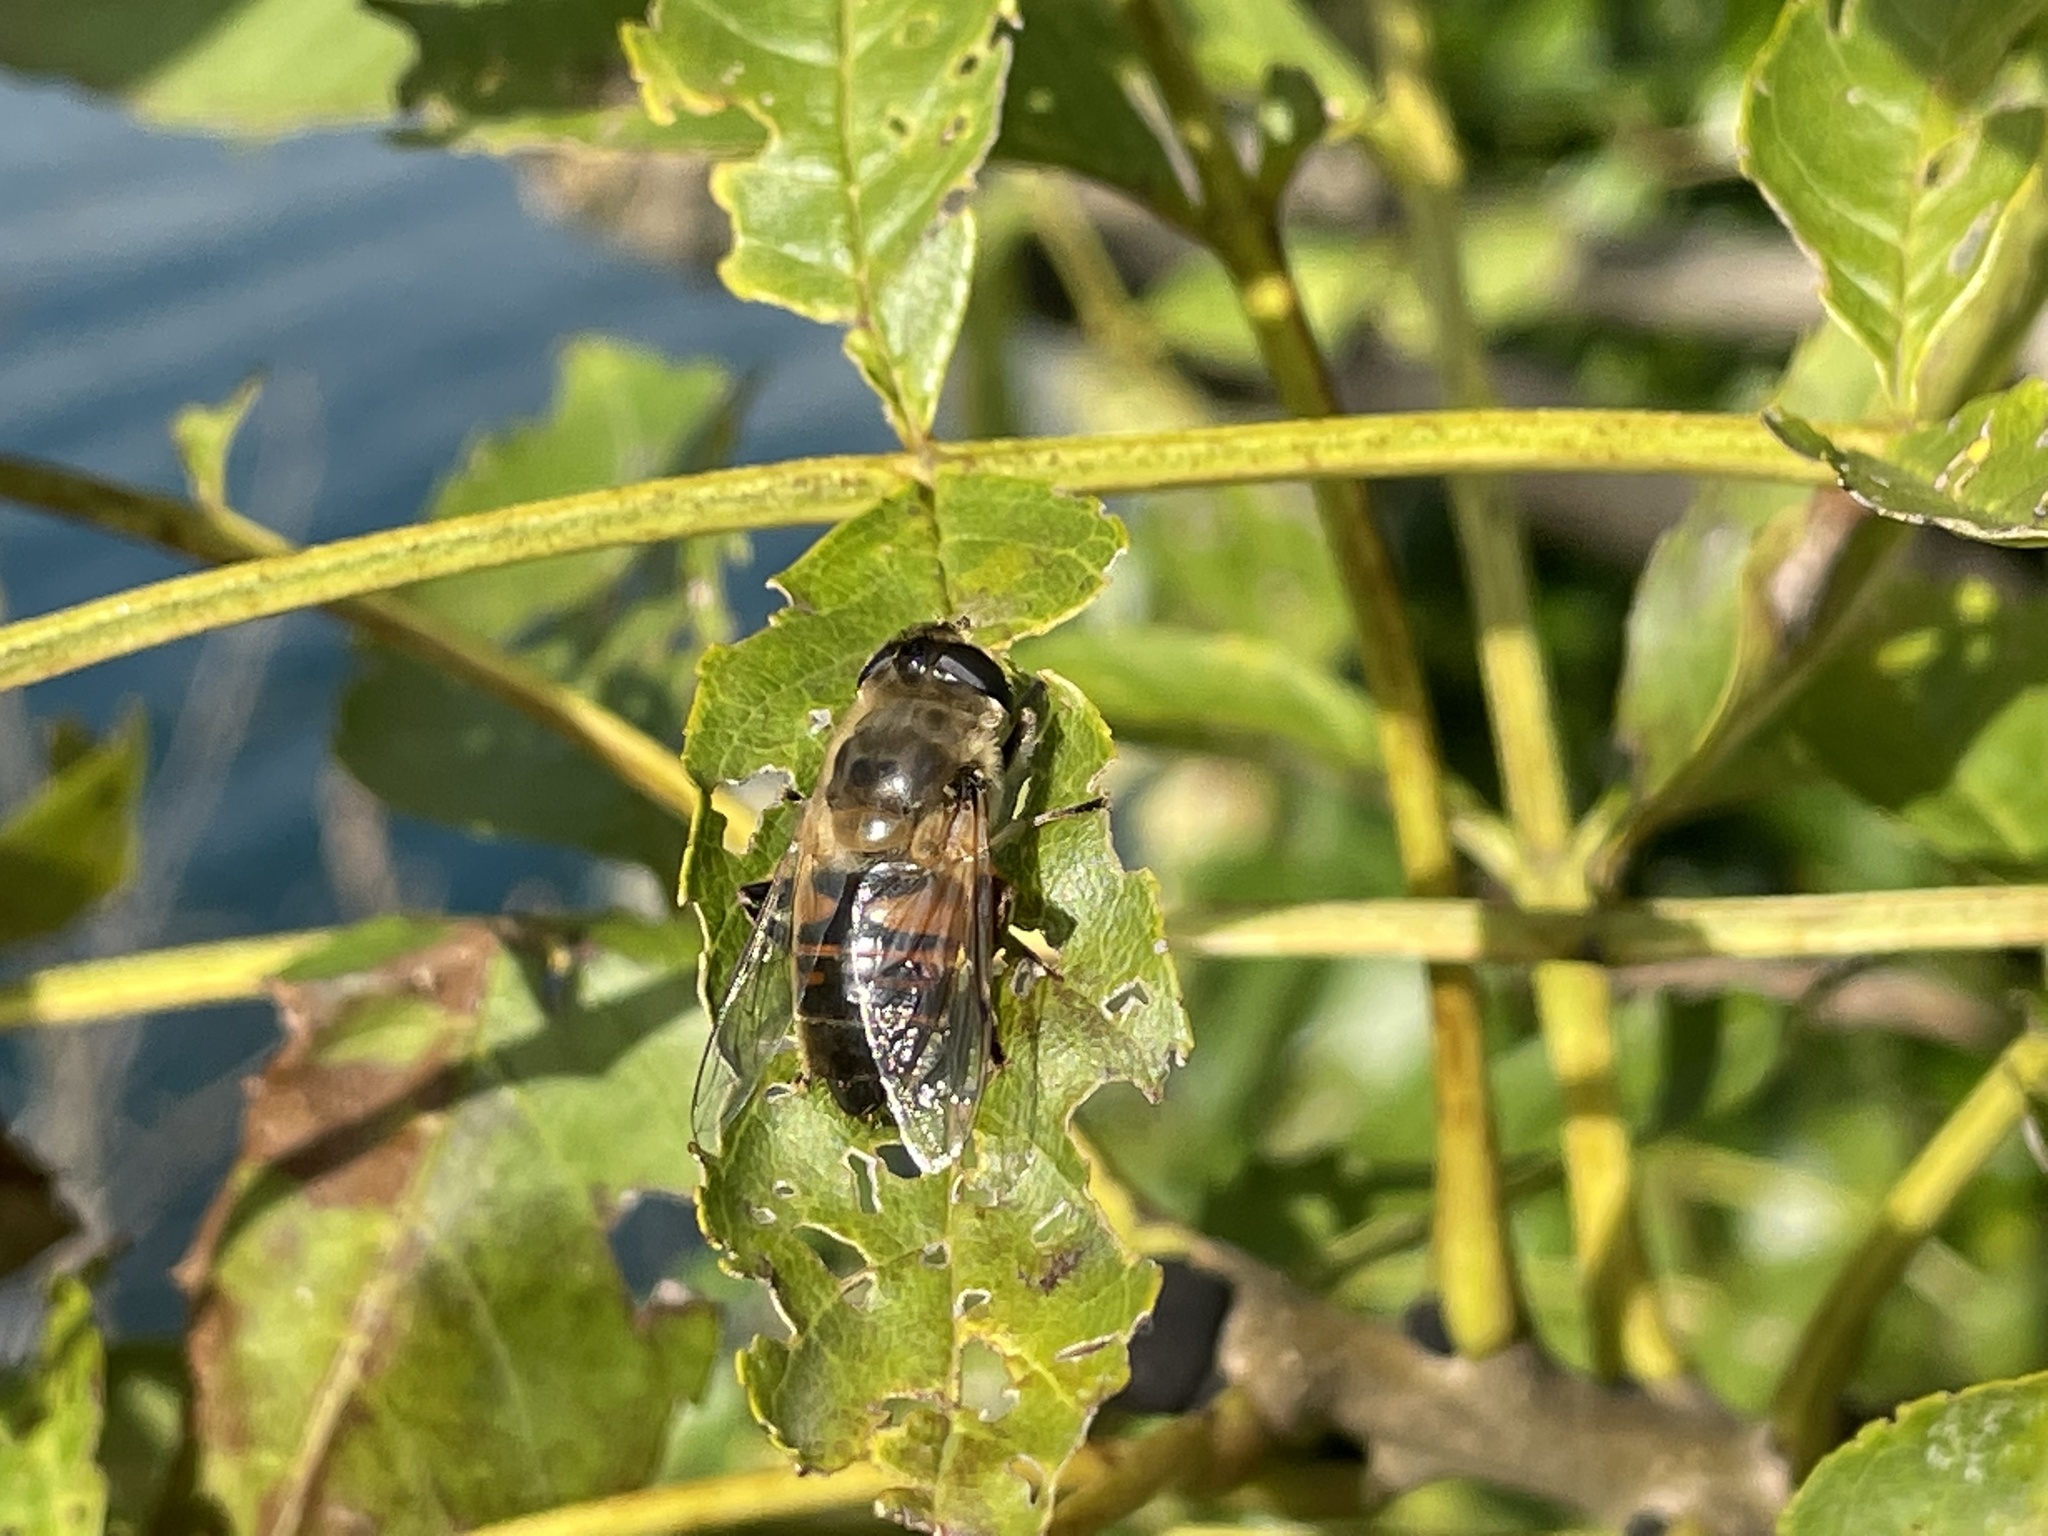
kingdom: Animalia
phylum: Arthropoda
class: Insecta
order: Diptera
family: Syrphidae
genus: Eristalis
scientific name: Eristalis tenax
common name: Drone fly
